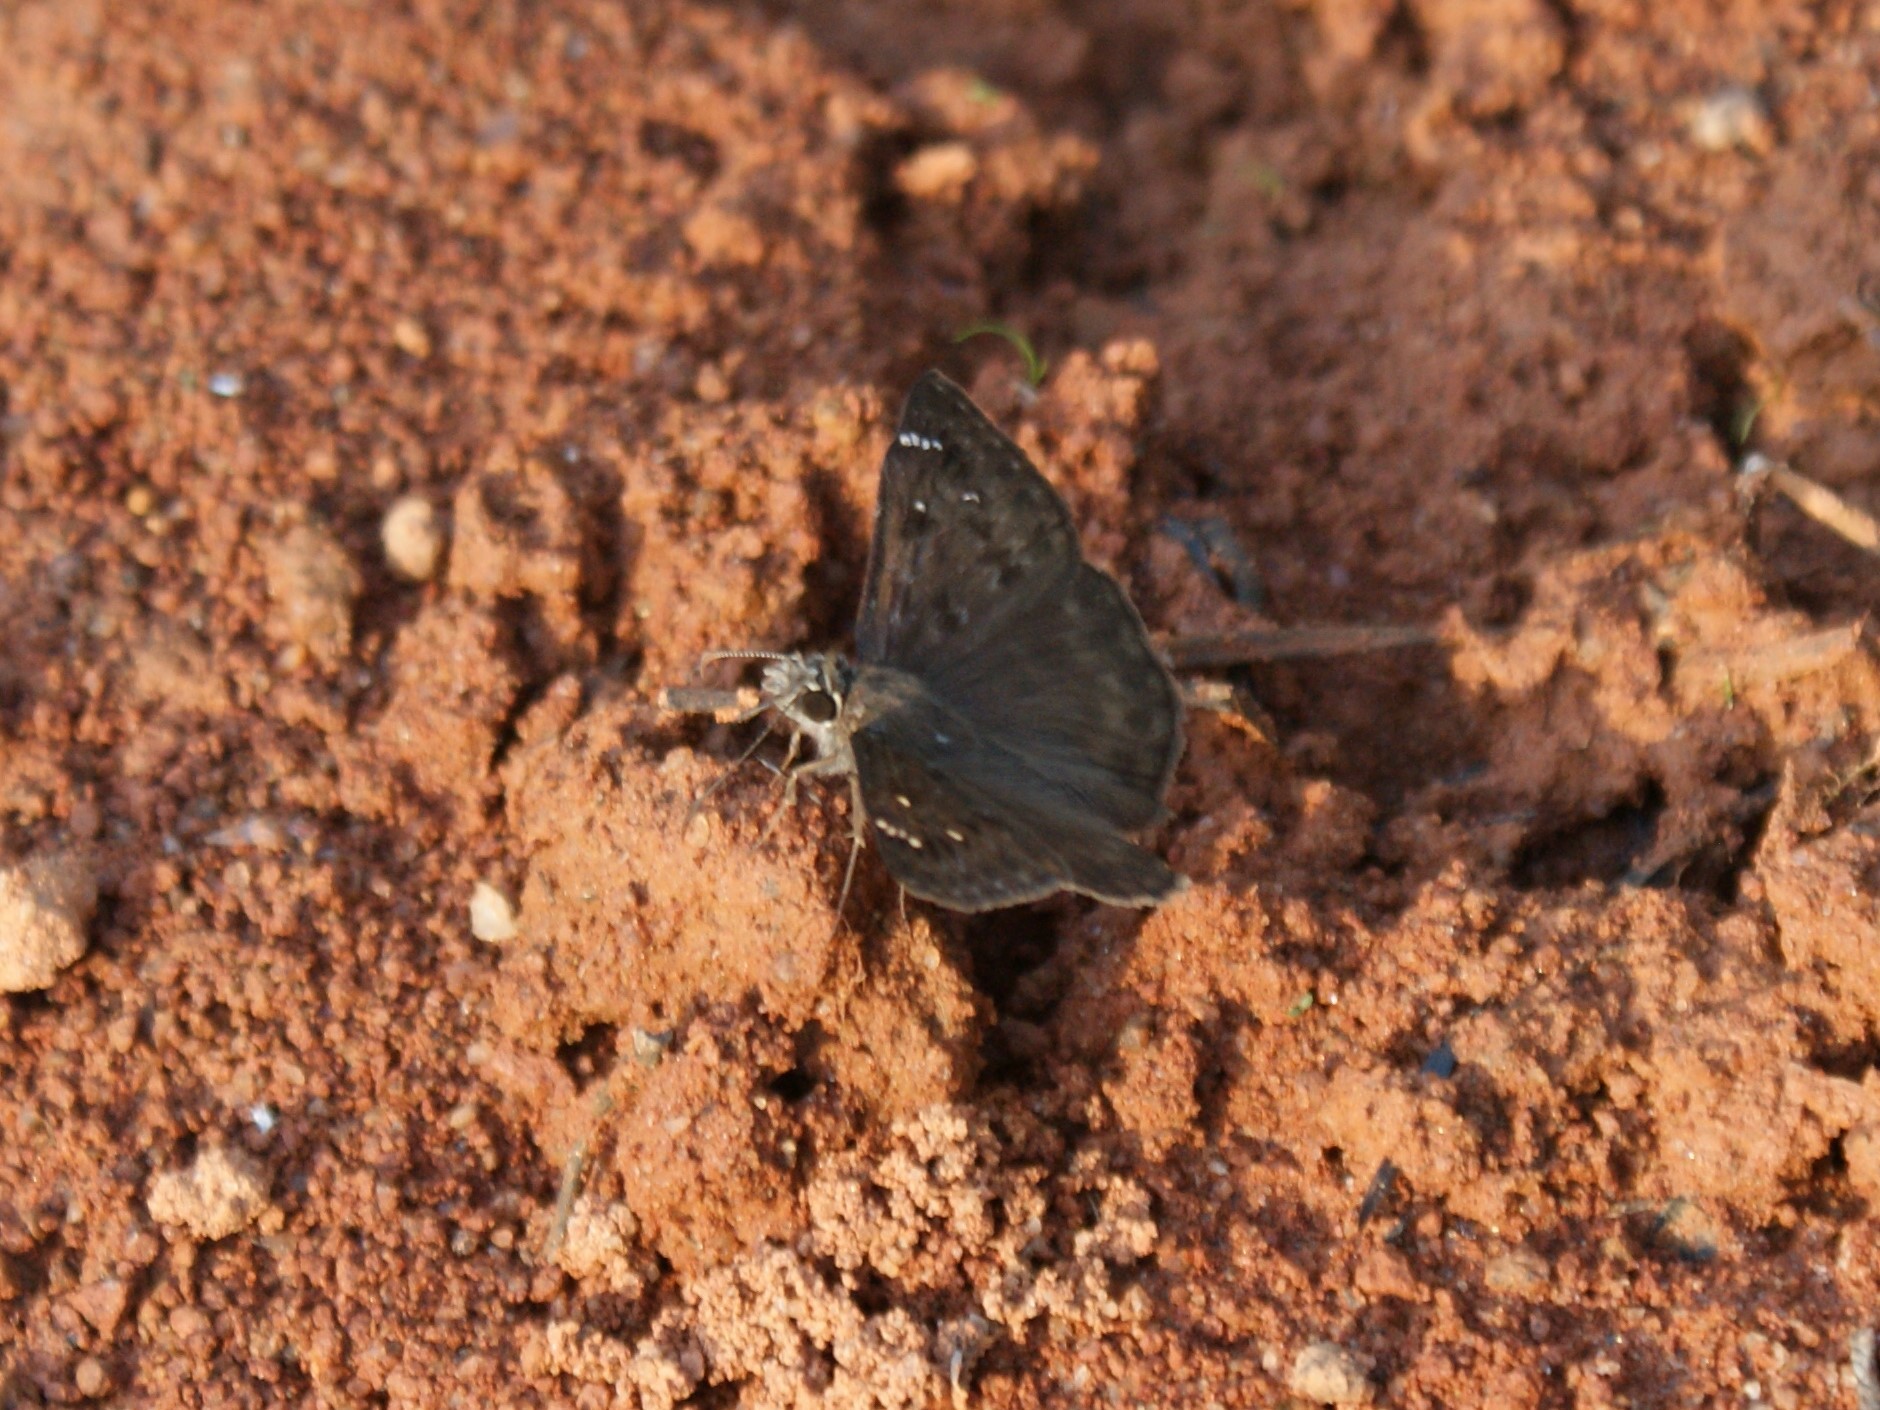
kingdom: Animalia
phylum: Arthropoda
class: Insecta
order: Lepidoptera
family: Hesperiidae
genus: Erynnis
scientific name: Erynnis horatius
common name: Horace's duskywing
